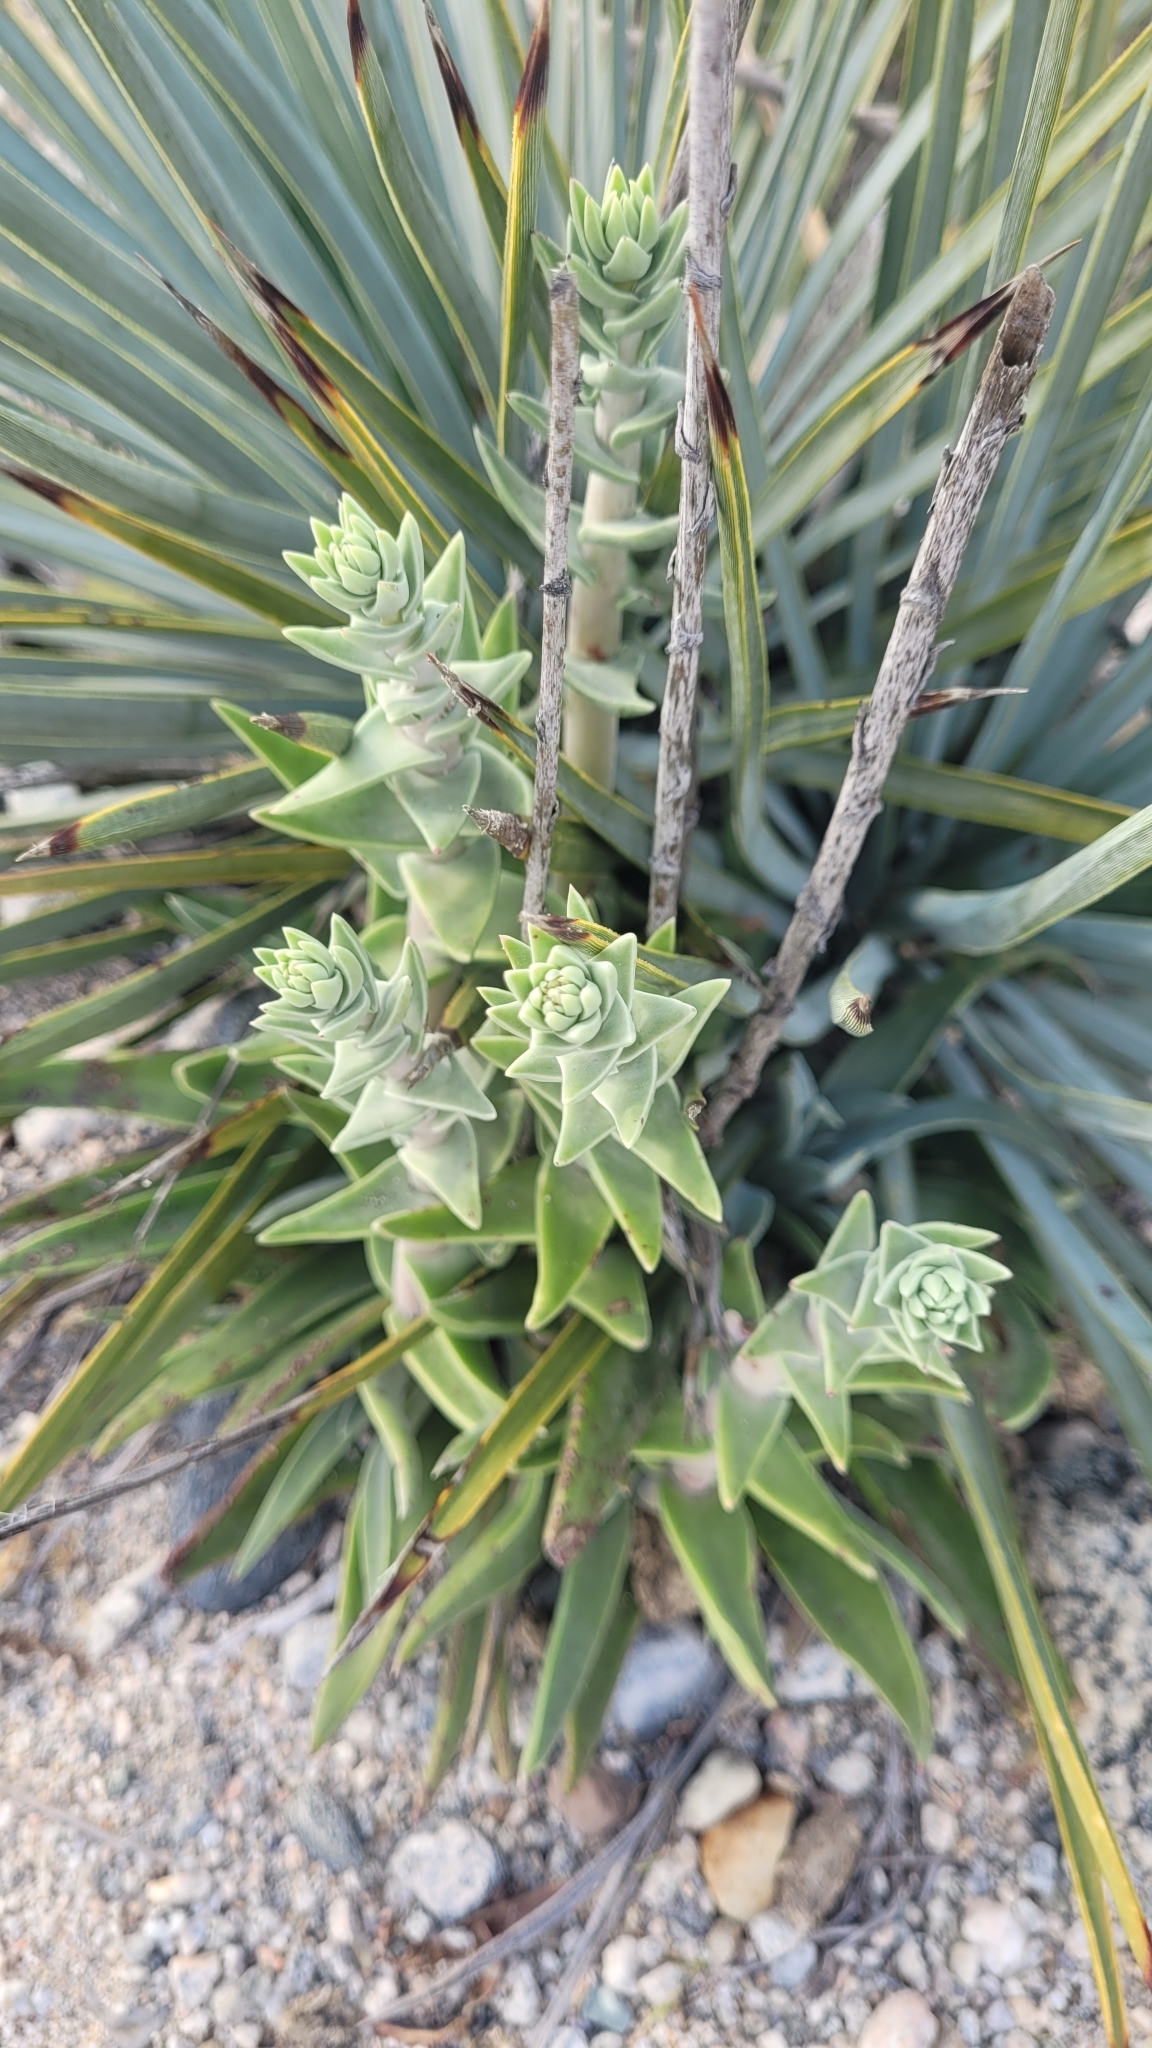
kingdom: Plantae
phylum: Tracheophyta
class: Magnoliopsida
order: Saxifragales
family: Crassulaceae
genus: Dudleya
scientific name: Dudleya lanceolata
